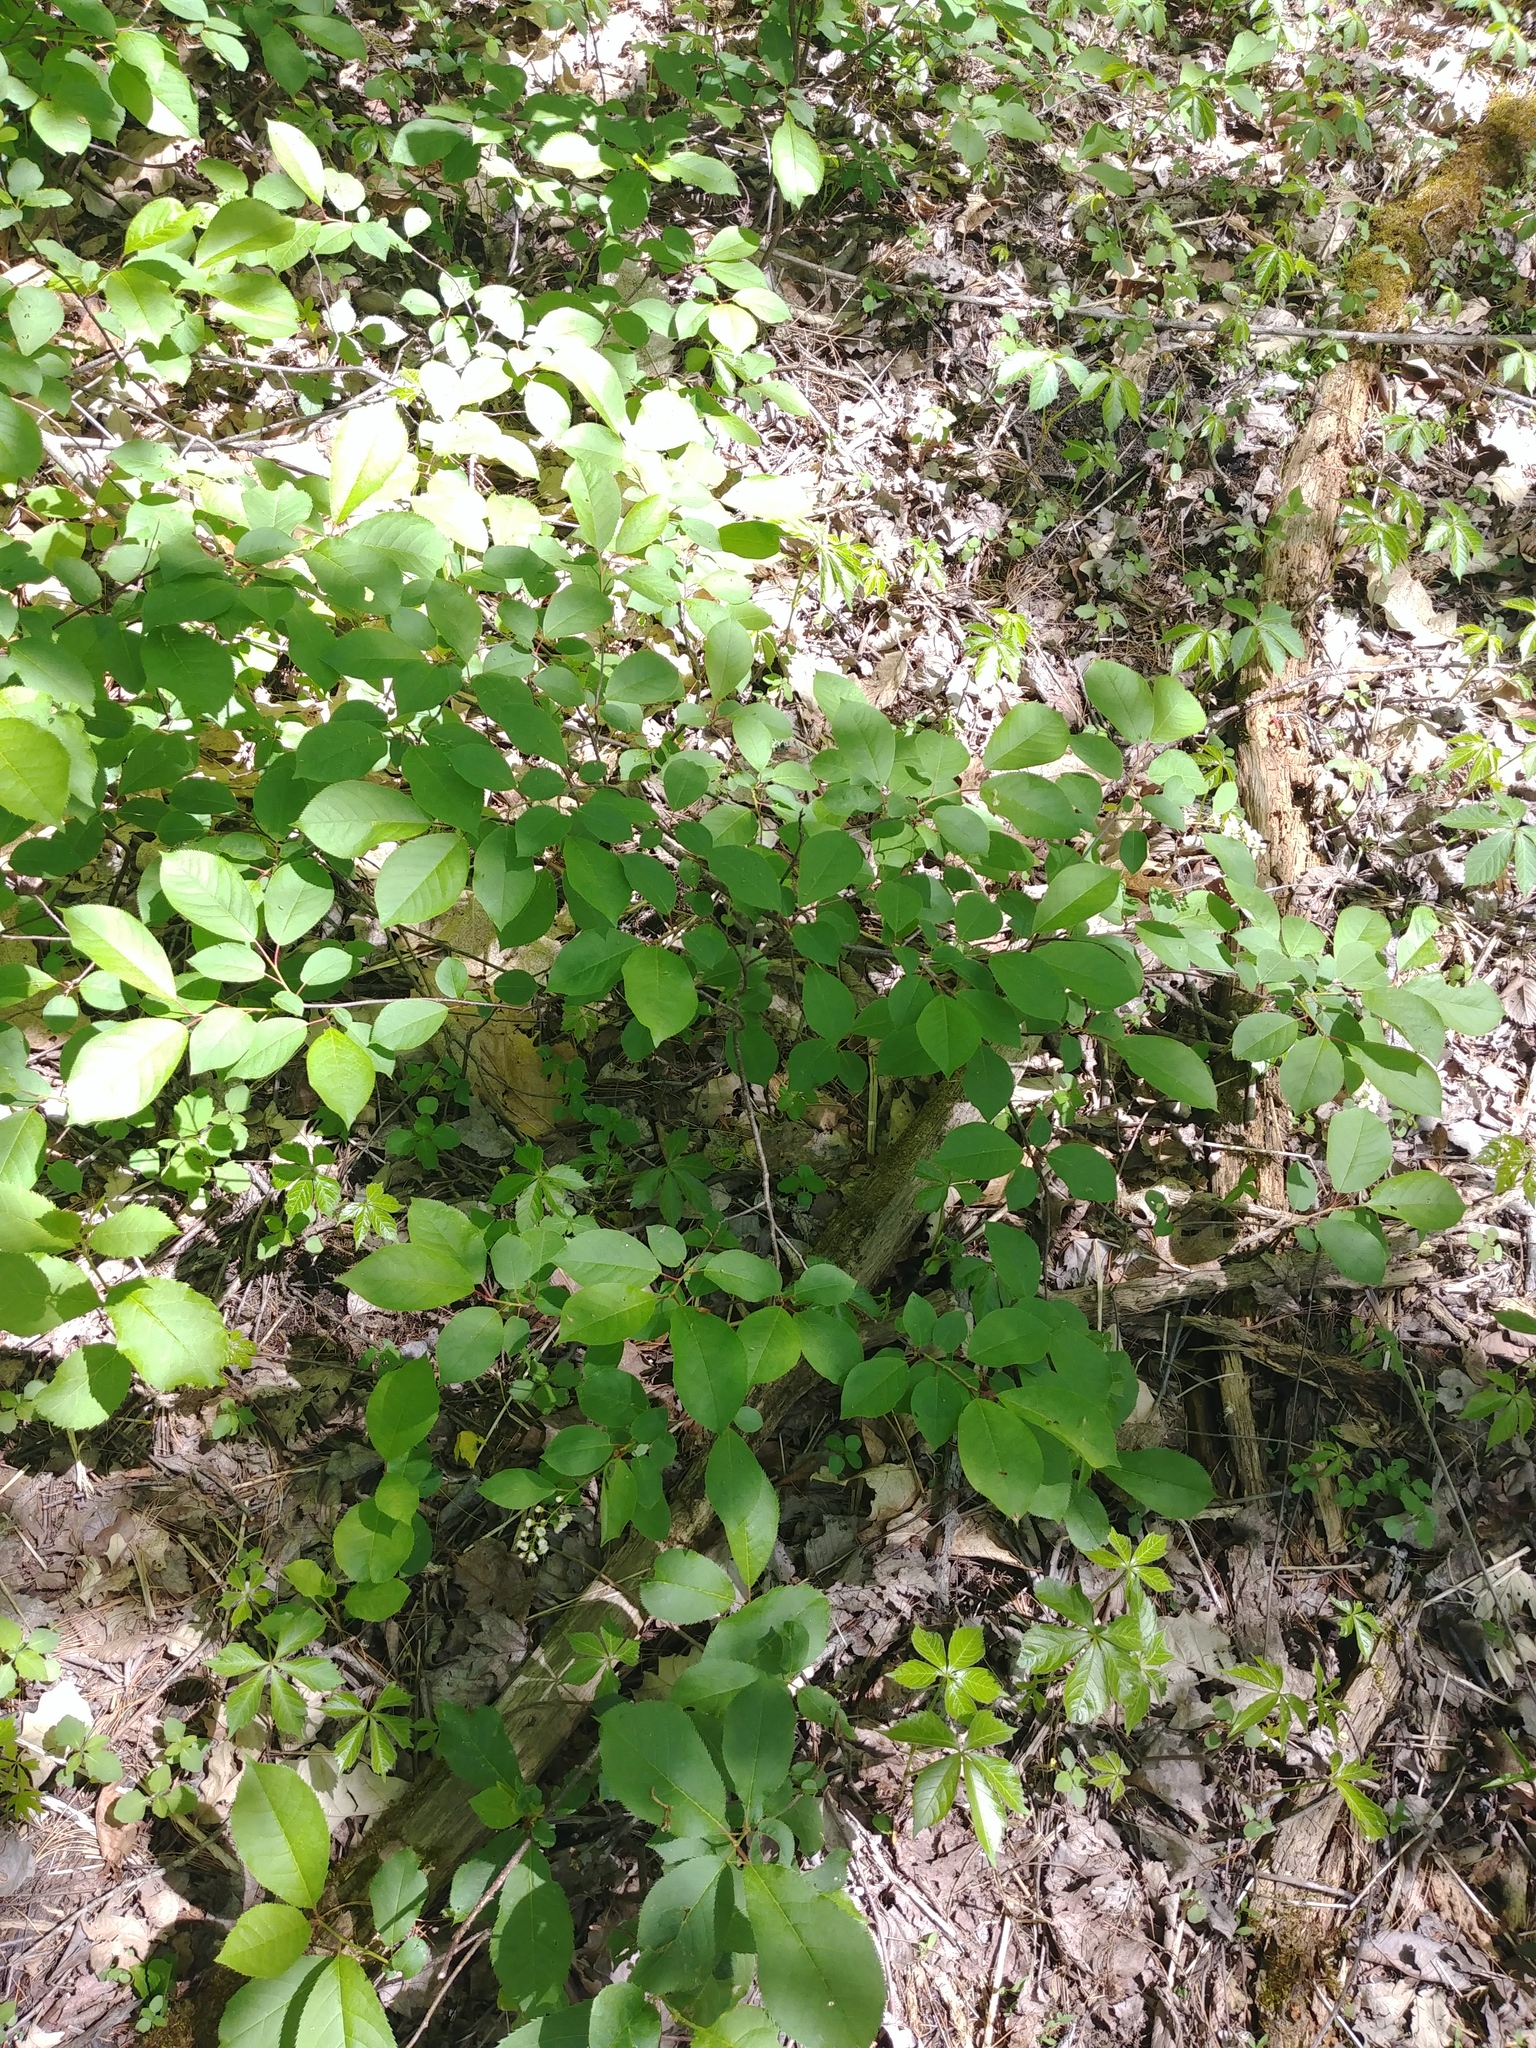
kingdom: Plantae
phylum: Tracheophyta
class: Magnoliopsida
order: Rosales
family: Rosaceae
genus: Prunus
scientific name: Prunus virginiana
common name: Chokecherry
